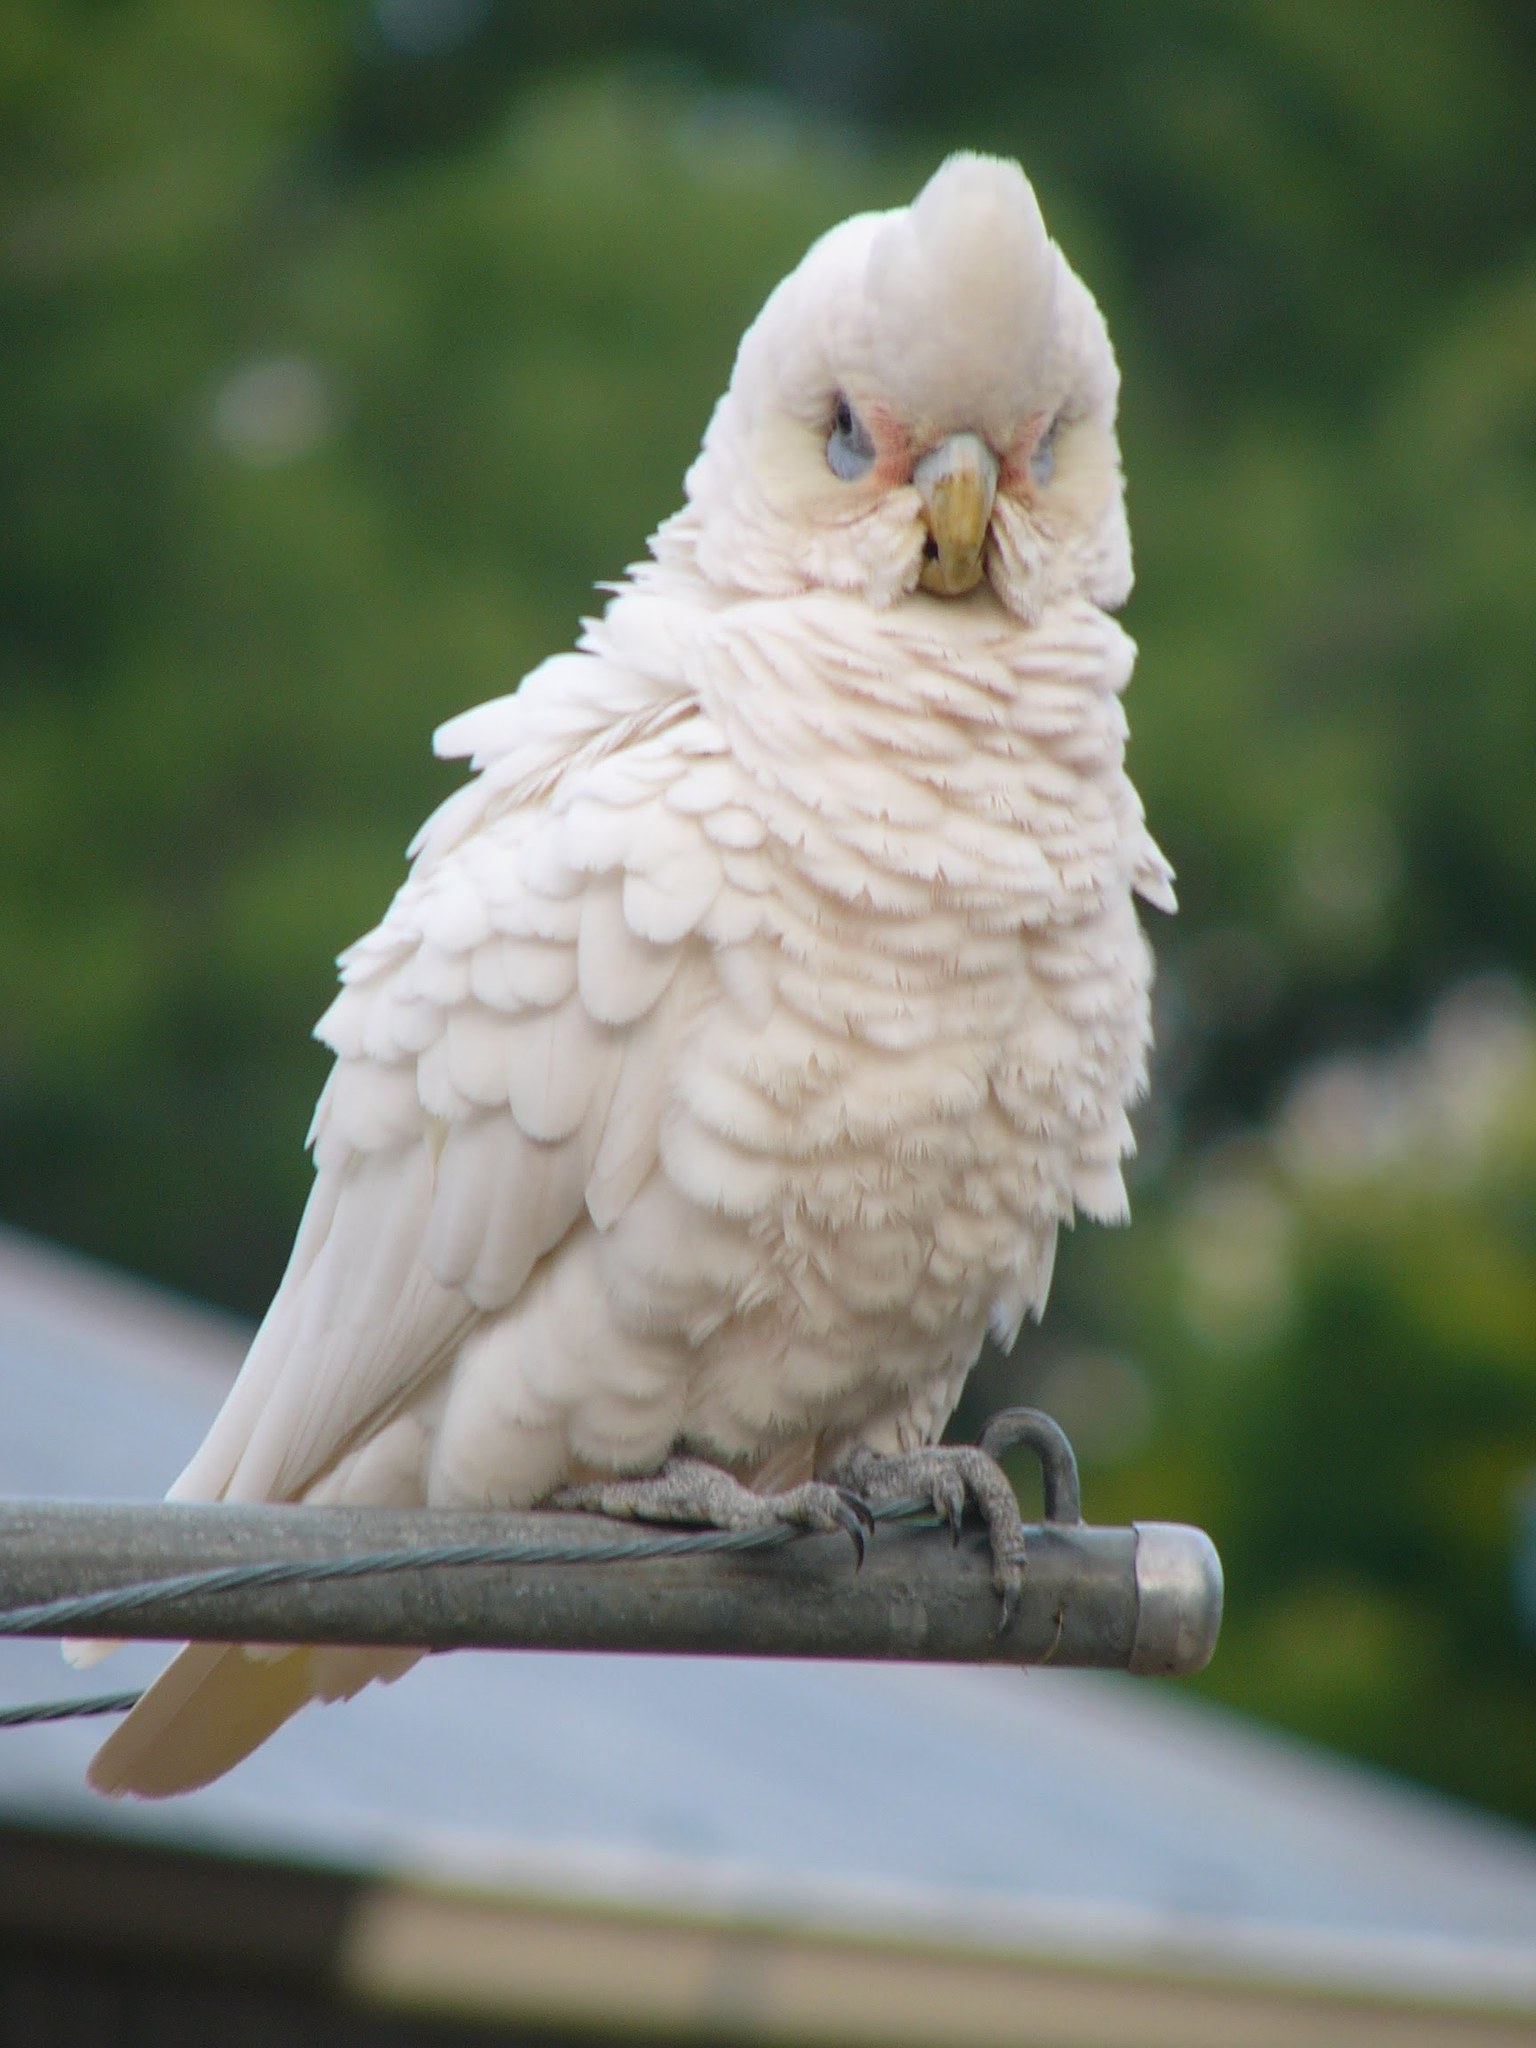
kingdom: Animalia
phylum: Chordata
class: Aves
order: Psittaciformes
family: Psittacidae
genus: Cacatua
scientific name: Cacatua sanguinea
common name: Little corella
